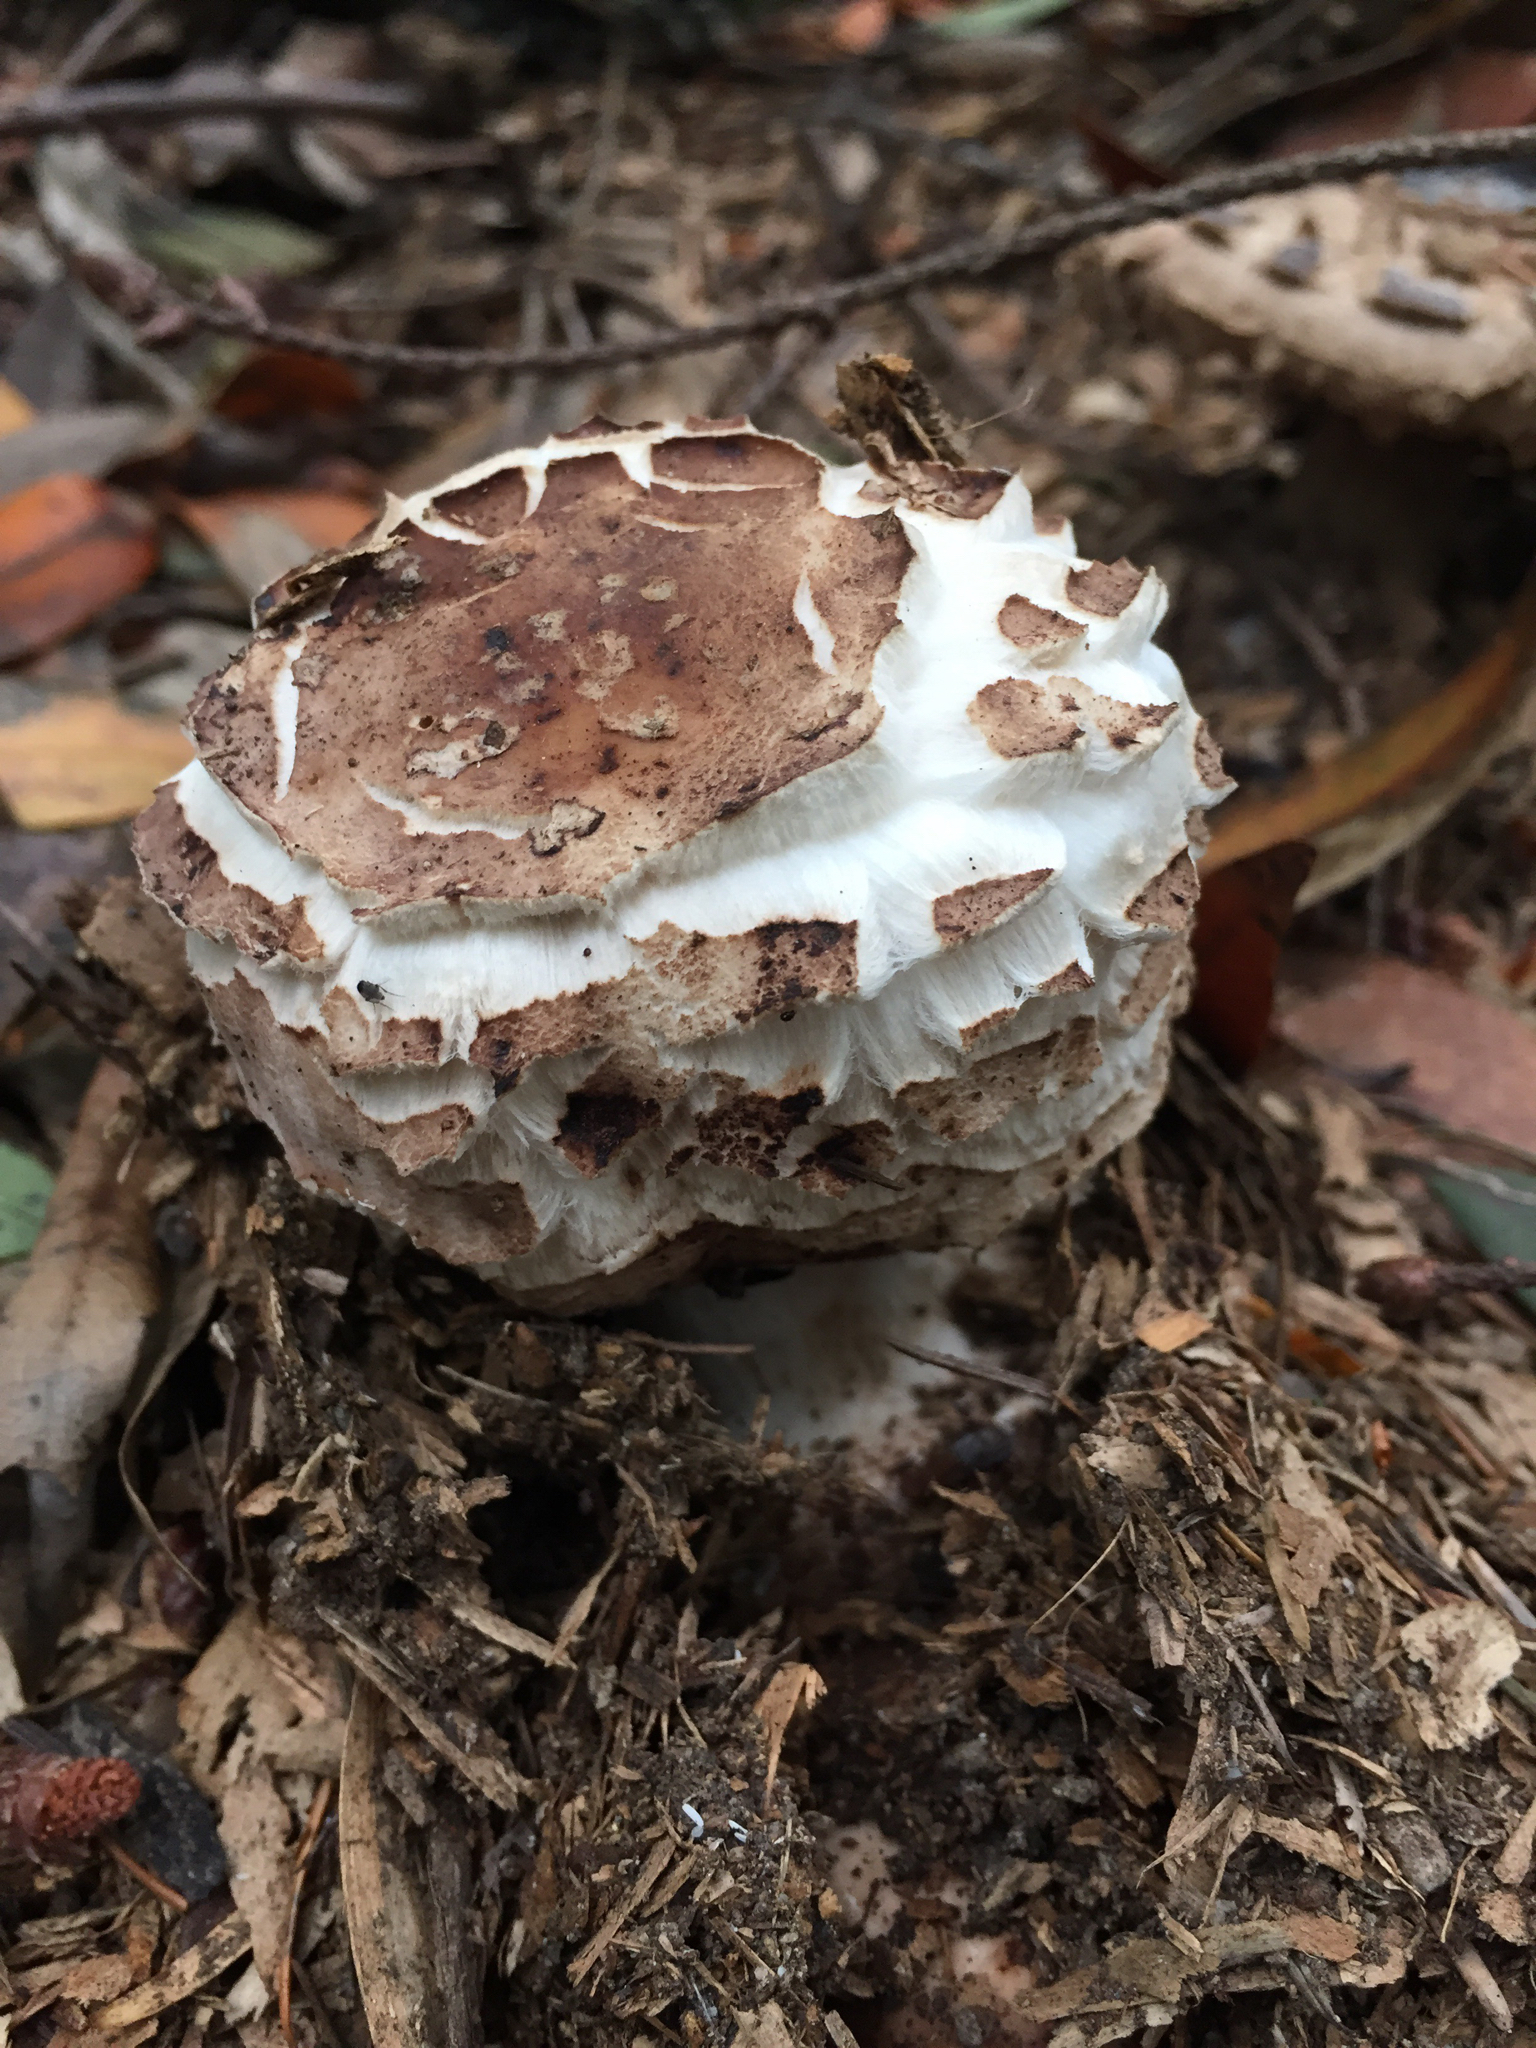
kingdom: Fungi
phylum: Basidiomycota
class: Agaricomycetes
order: Agaricales
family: Agaricaceae
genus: Chlorophyllum
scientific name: Chlorophyllum brunneum
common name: Brown parasol
